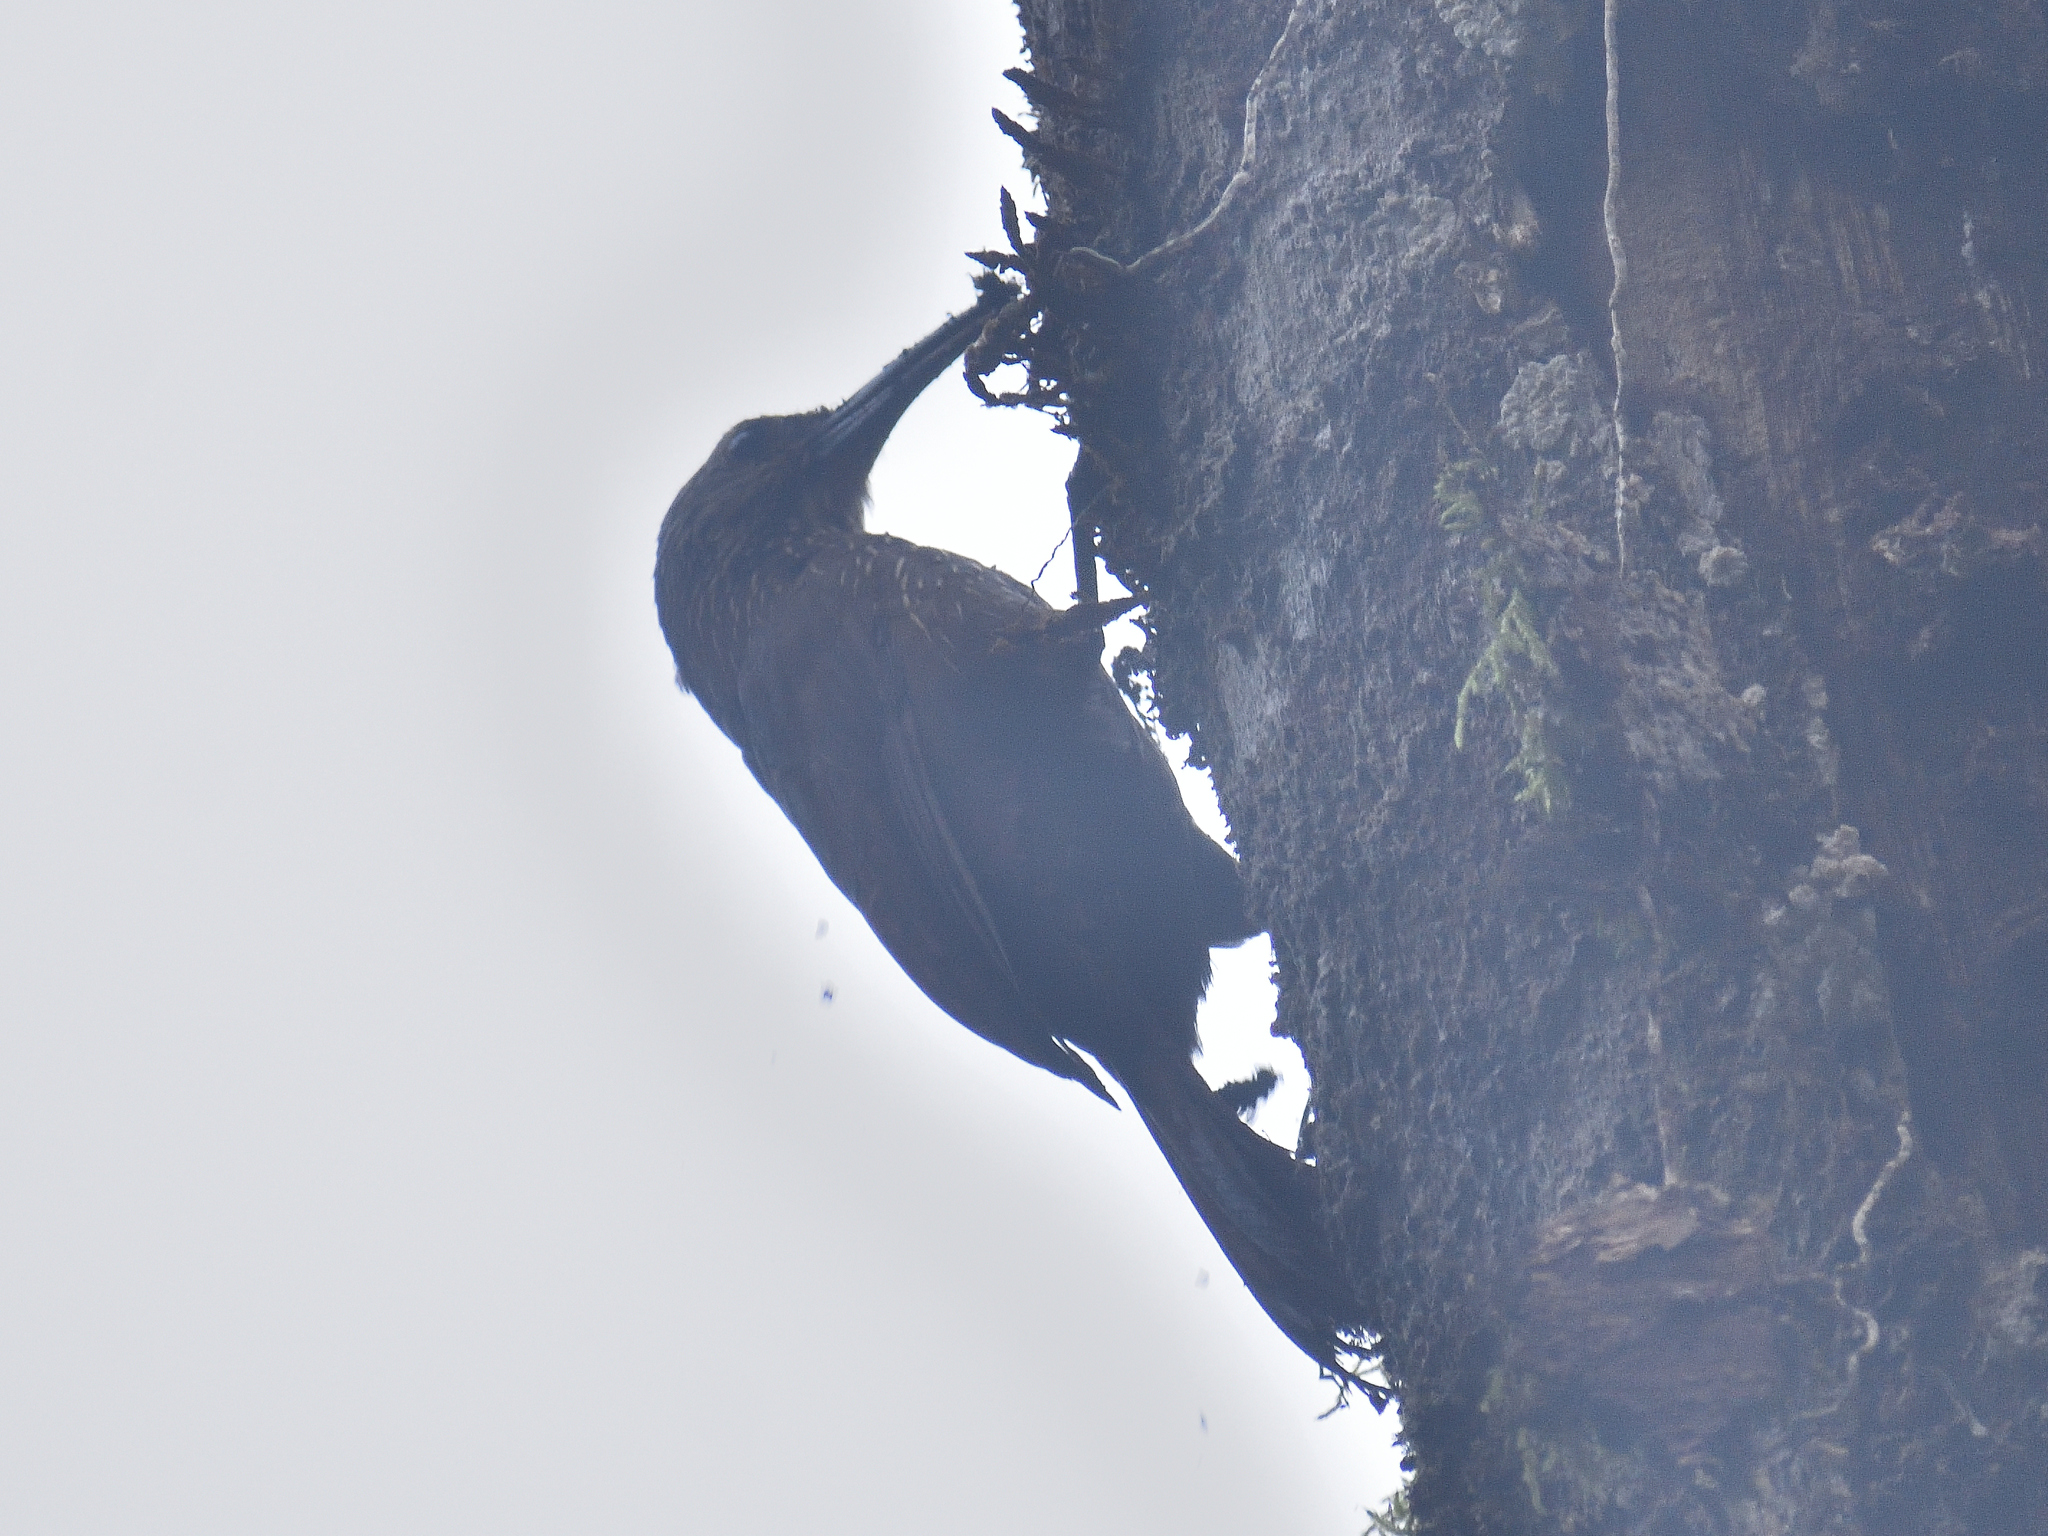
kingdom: Animalia
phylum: Chordata
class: Aves
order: Passeriformes
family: Furnariidae
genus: Xiphocolaptes
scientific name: Xiphocolaptes promeropirhynchus
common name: Strong-billed woodcreeper
